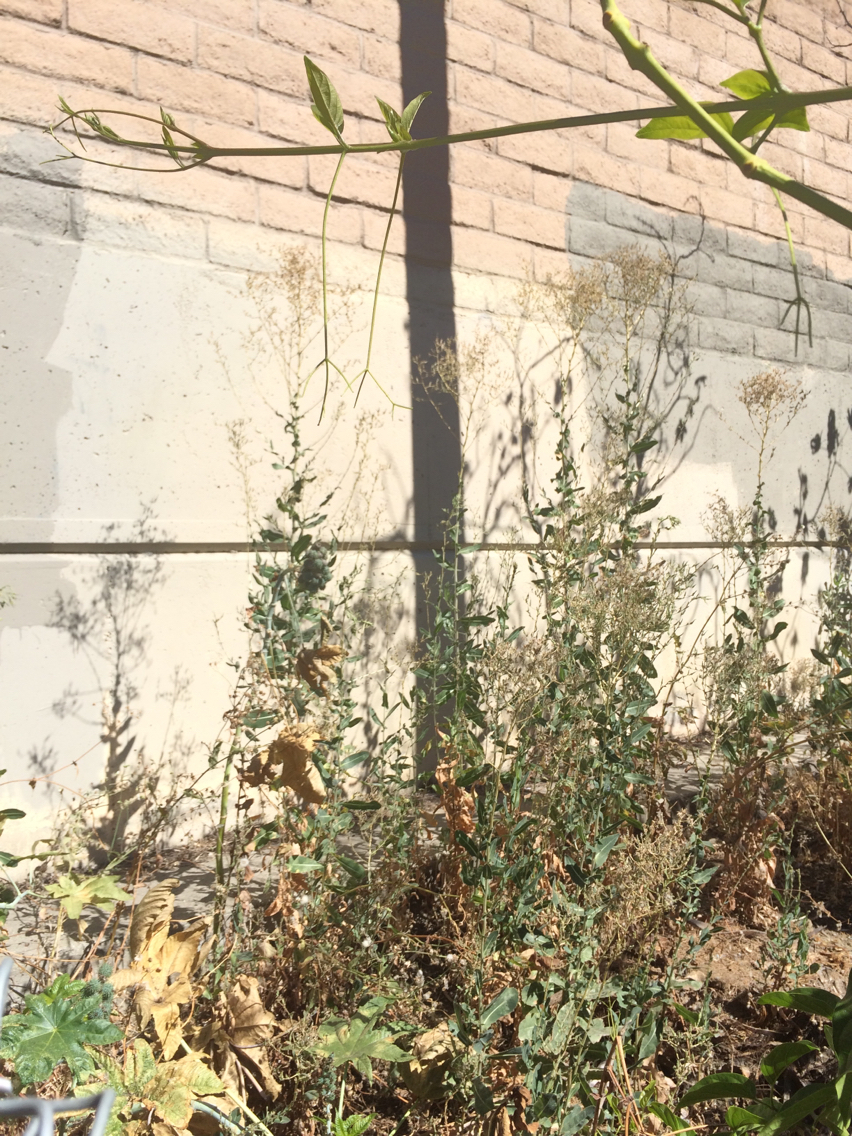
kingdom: Plantae
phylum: Tracheophyta
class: Magnoliopsida
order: Asterales
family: Asteraceae
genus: Lactuca
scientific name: Lactuca serriola
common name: Prickly lettuce
